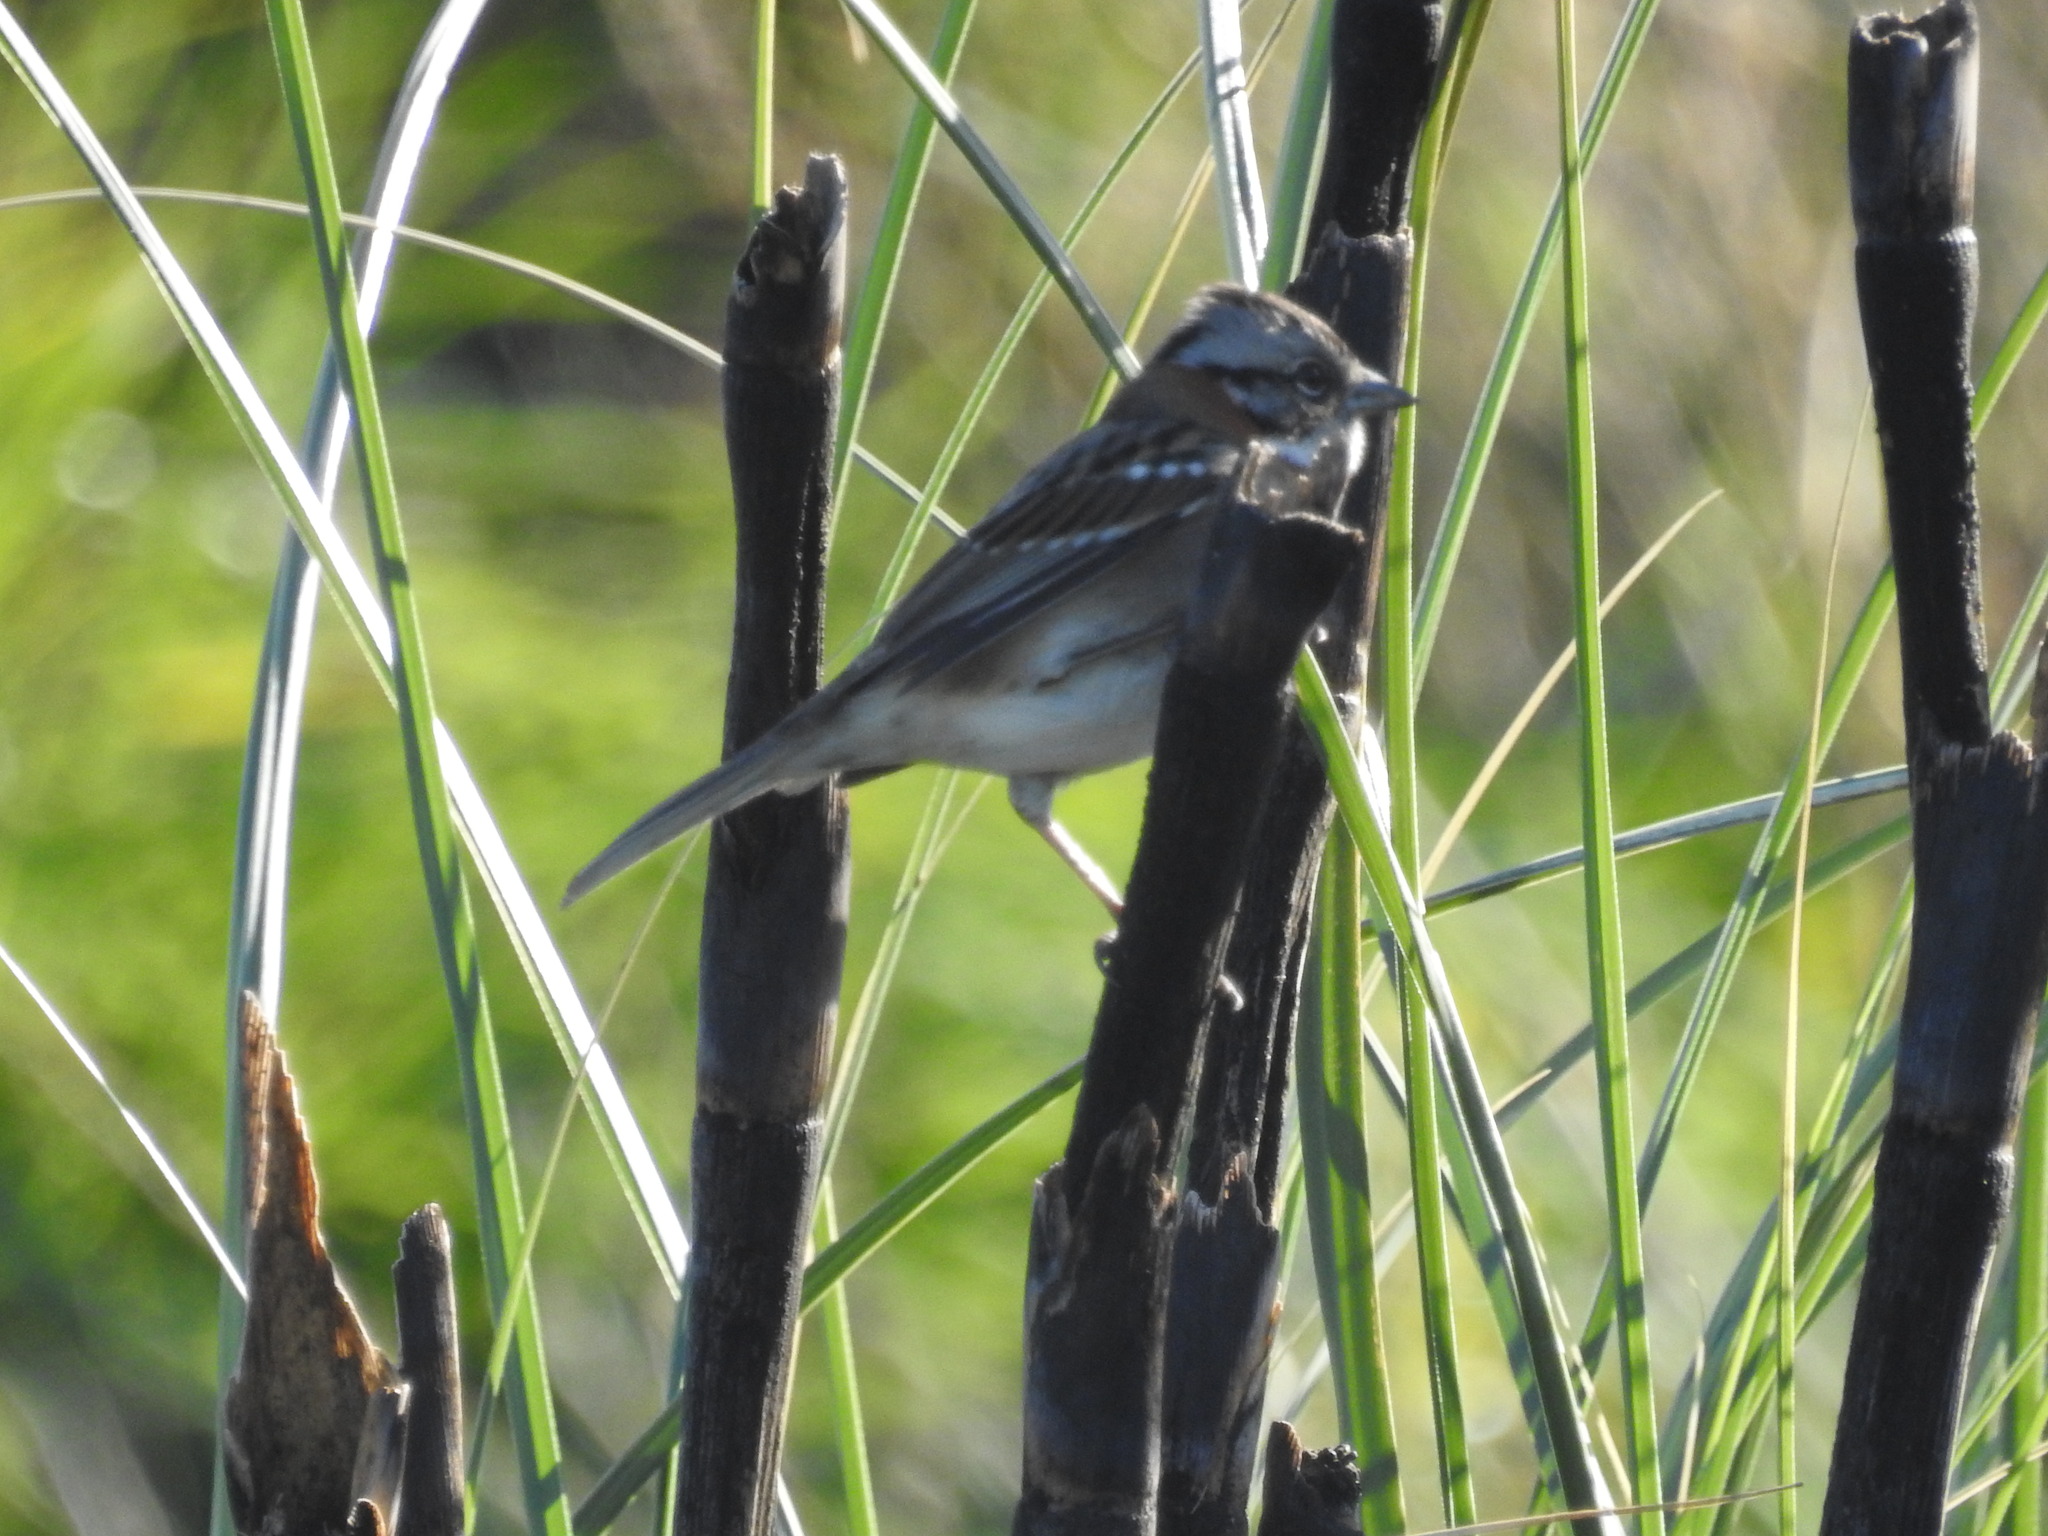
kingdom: Animalia
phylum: Chordata
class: Aves
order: Passeriformes
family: Passerellidae
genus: Zonotrichia
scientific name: Zonotrichia capensis
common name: Rufous-collared sparrow
